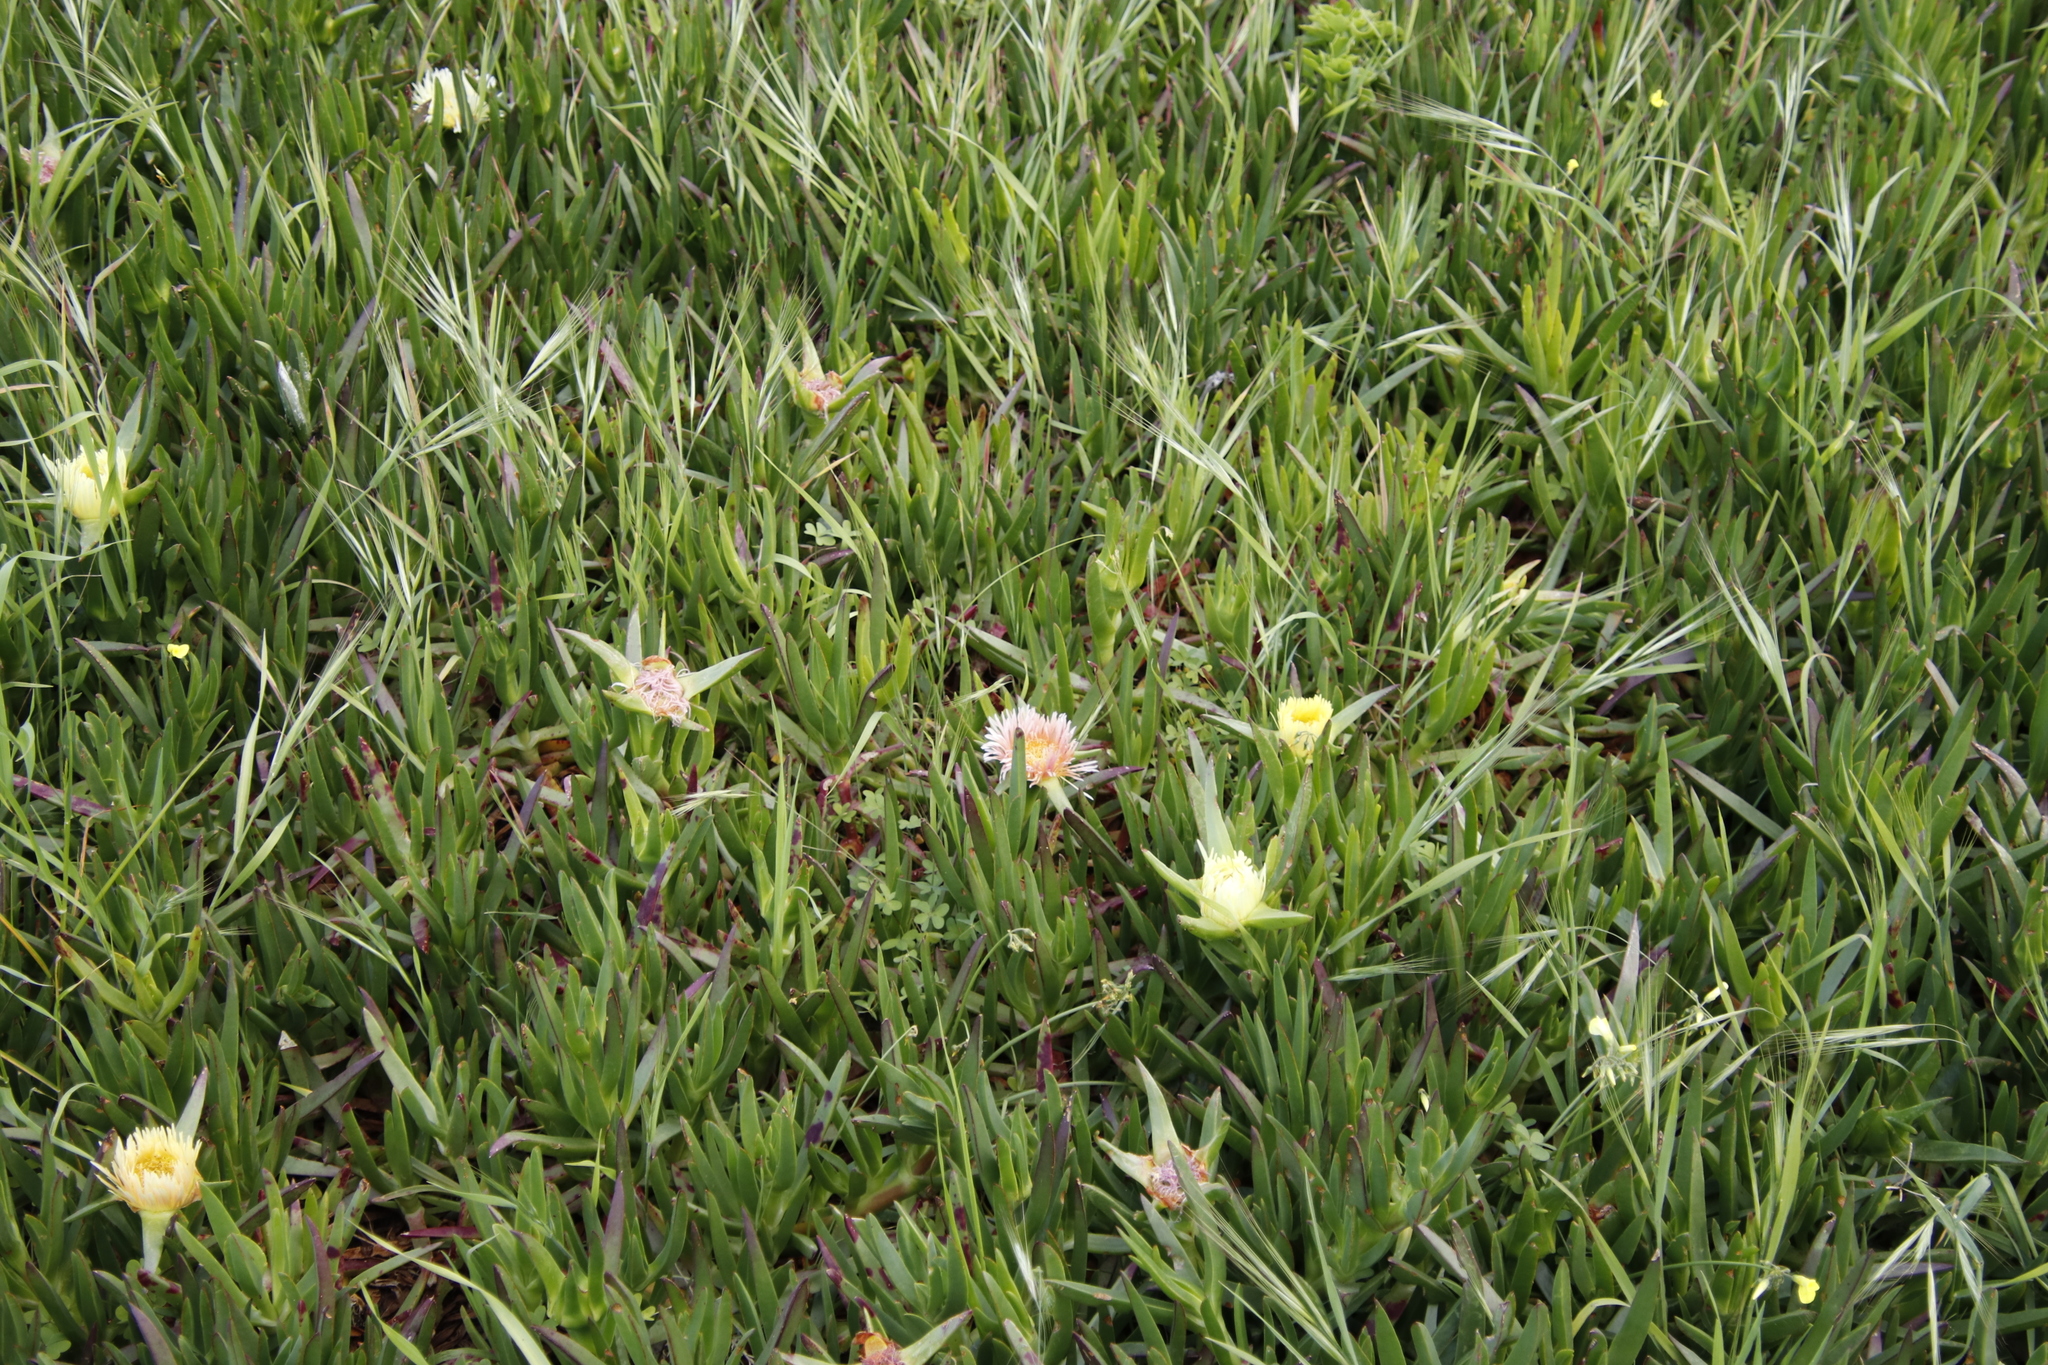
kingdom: Plantae
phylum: Tracheophyta
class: Magnoliopsida
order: Caryophyllales
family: Aizoaceae
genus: Carpobrotus
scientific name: Carpobrotus edulis
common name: Hottentot-fig
